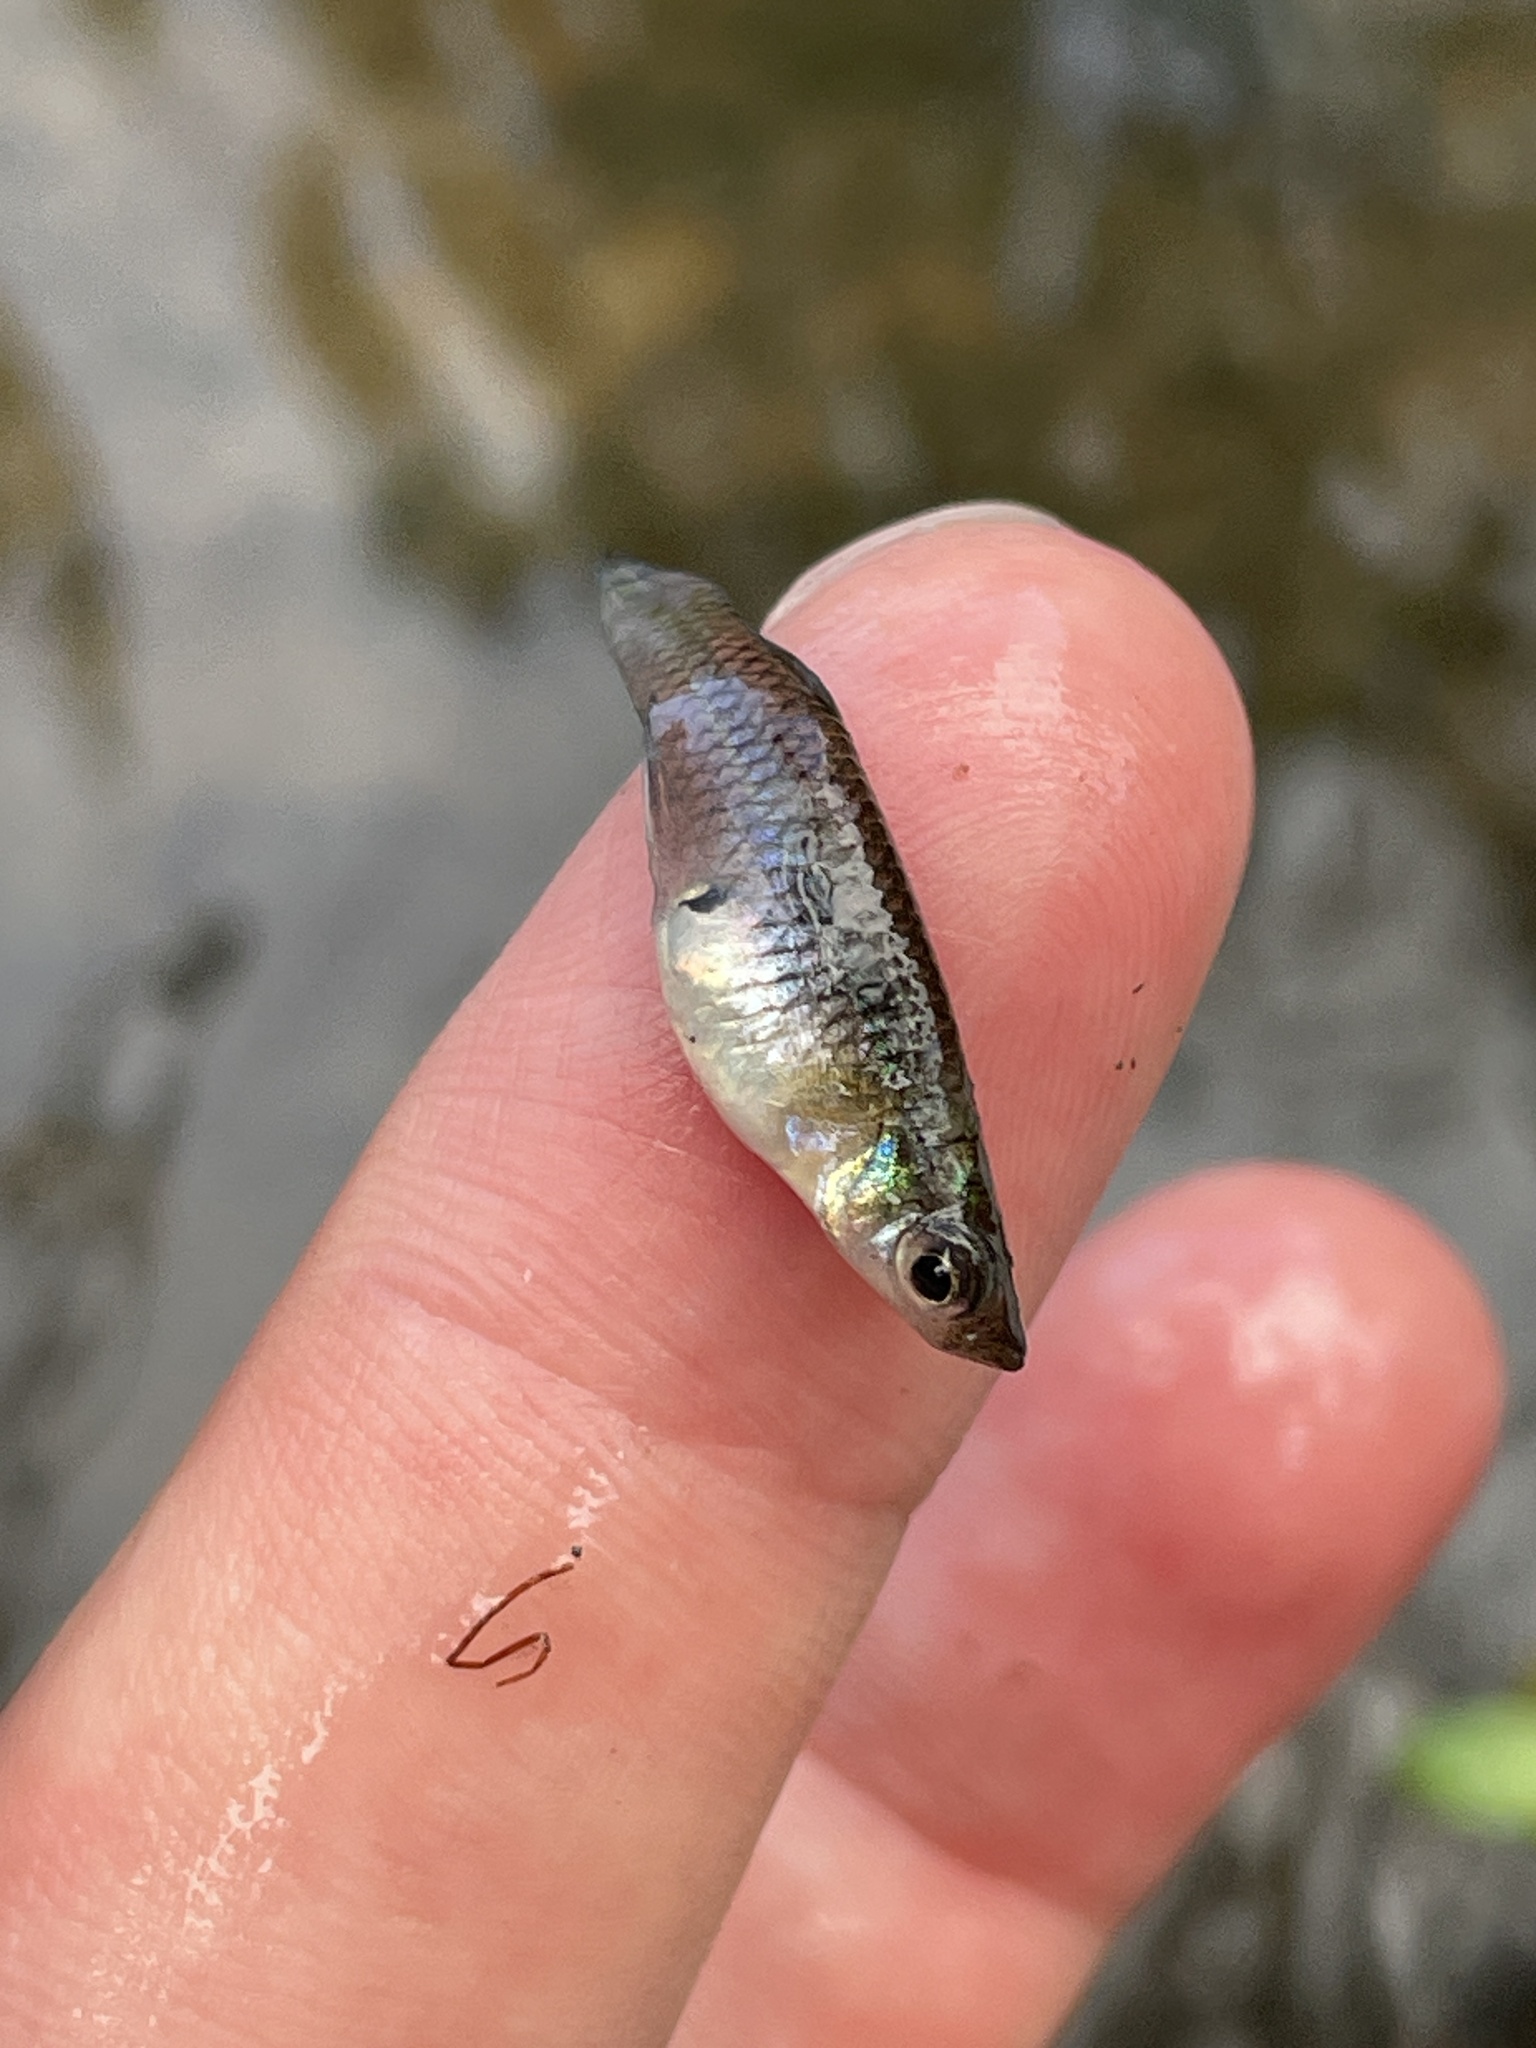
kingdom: Animalia
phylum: Chordata
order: Cyprinodontiformes
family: Poeciliidae
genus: Gambusia
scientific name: Gambusia holbrooki
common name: Eastern mosquitofish
